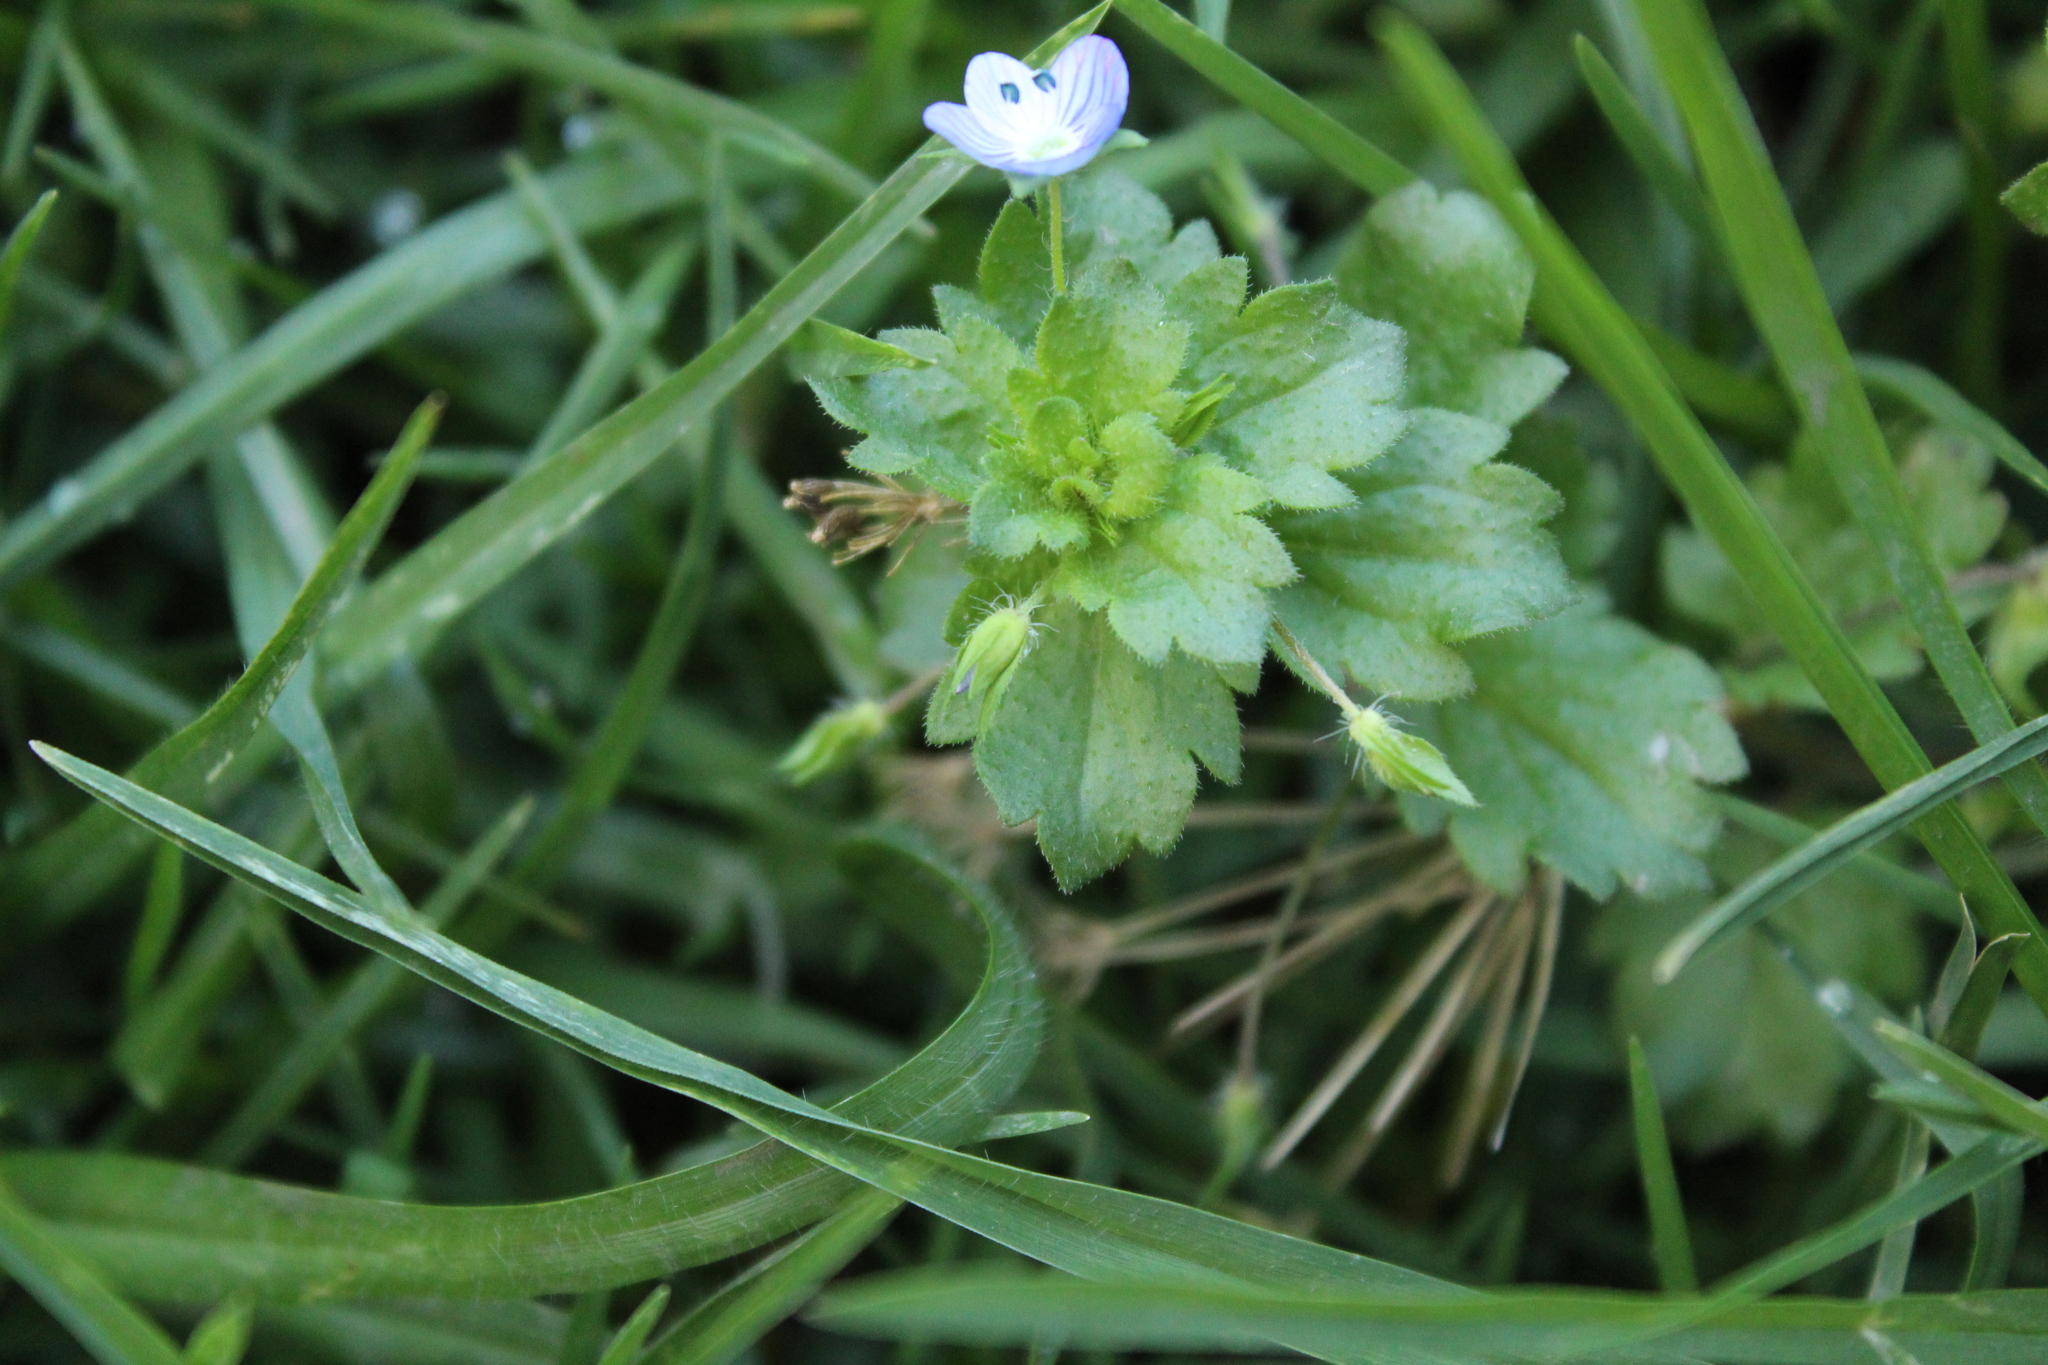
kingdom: Plantae
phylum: Tracheophyta
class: Magnoliopsida
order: Lamiales
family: Plantaginaceae
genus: Veronica
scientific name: Veronica persica
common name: Common field-speedwell
